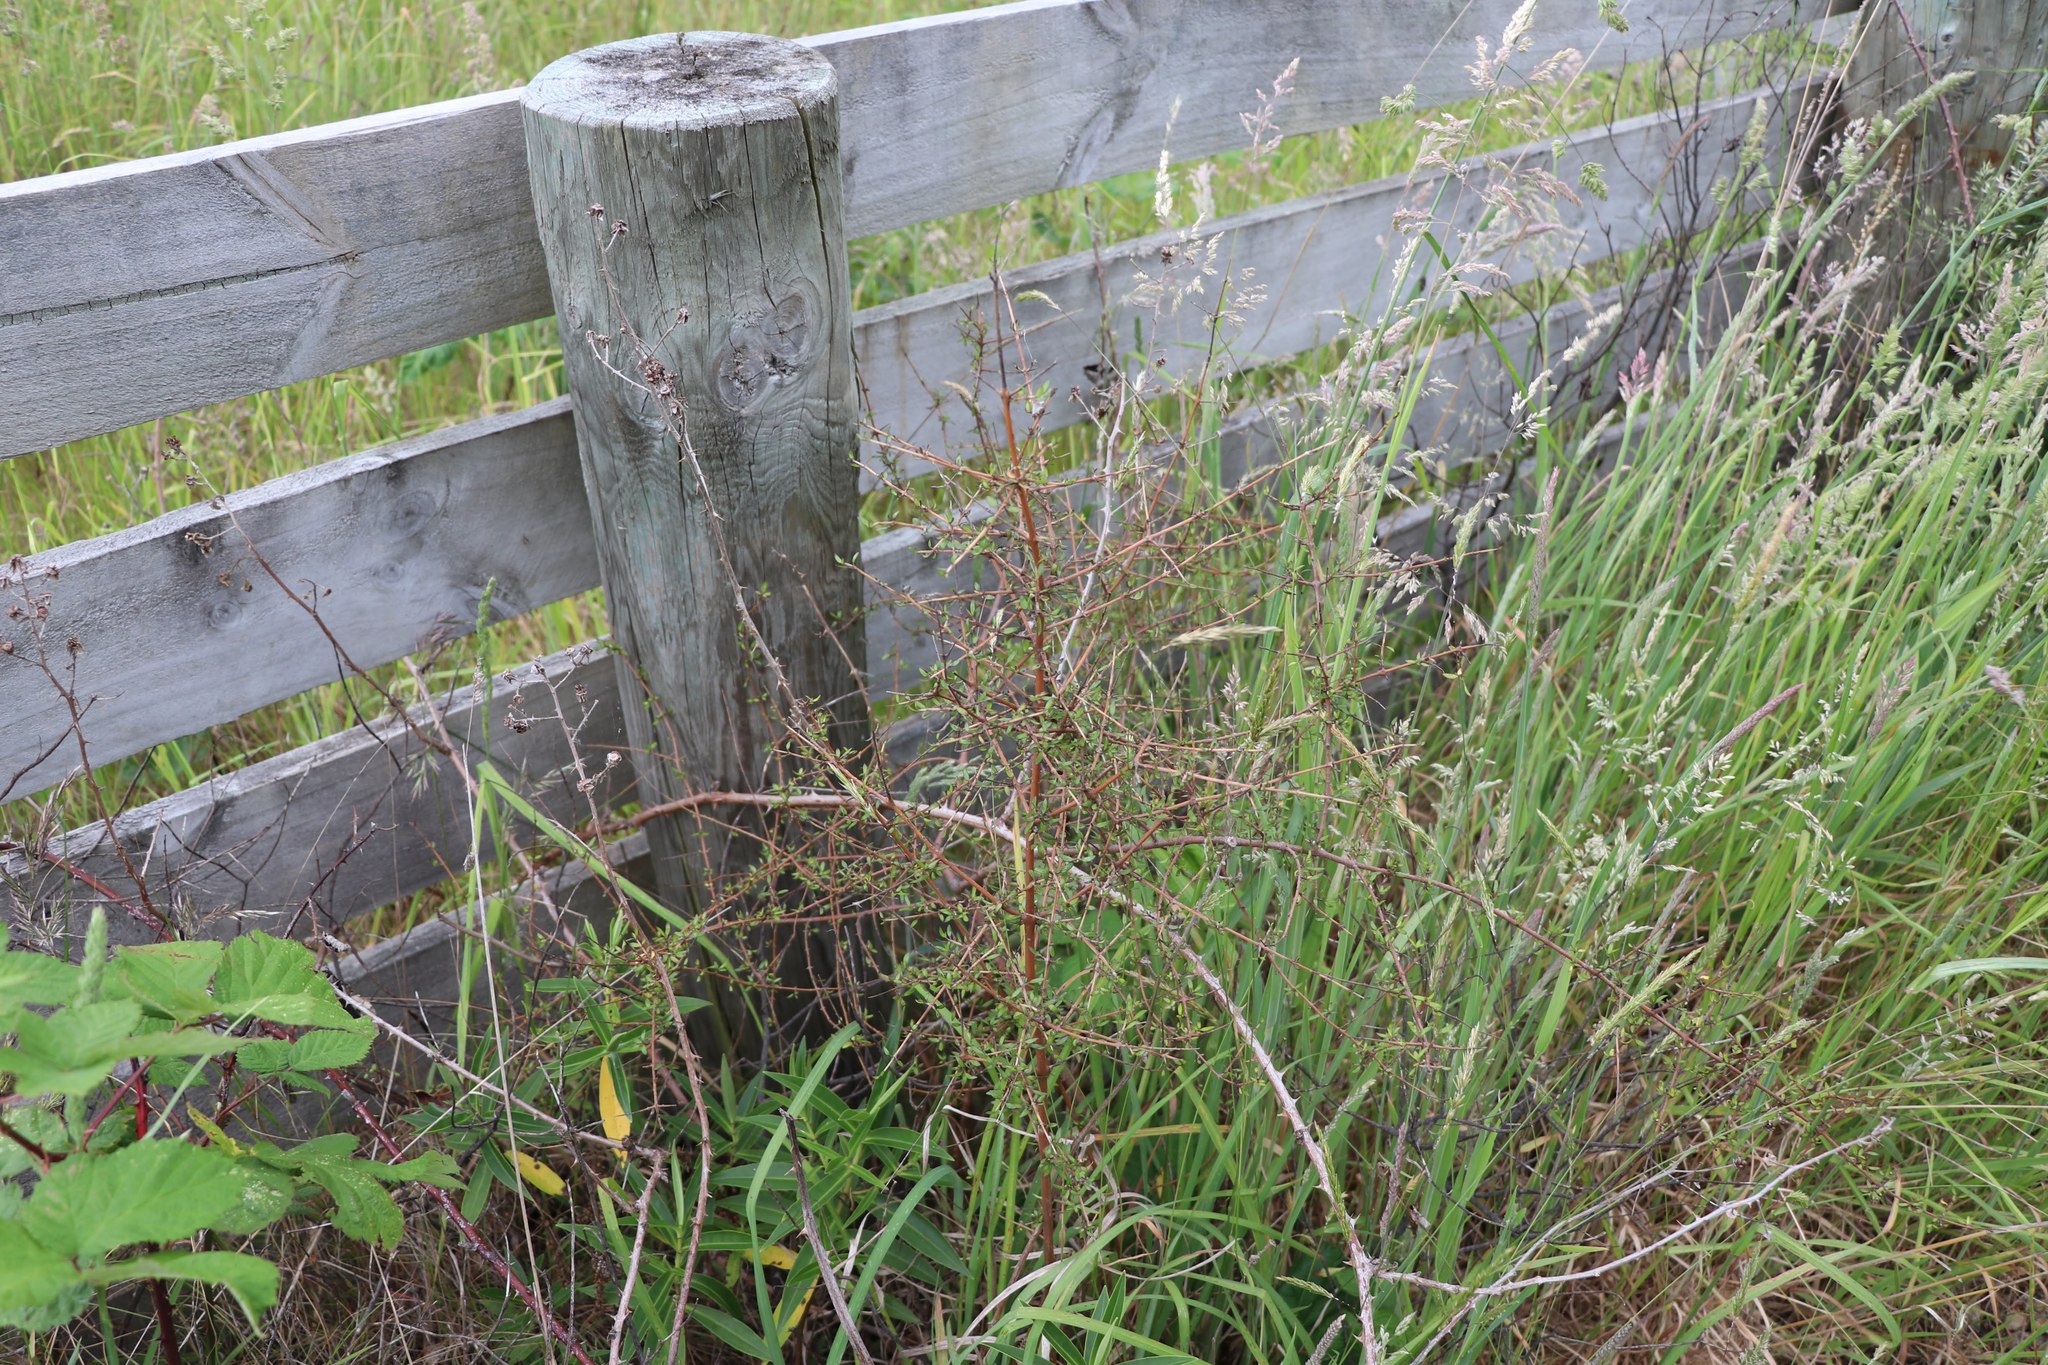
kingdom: Plantae
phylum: Tracheophyta
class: Magnoliopsida
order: Gentianales
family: Rubiaceae
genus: Coprosma
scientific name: Coprosma propinqua
